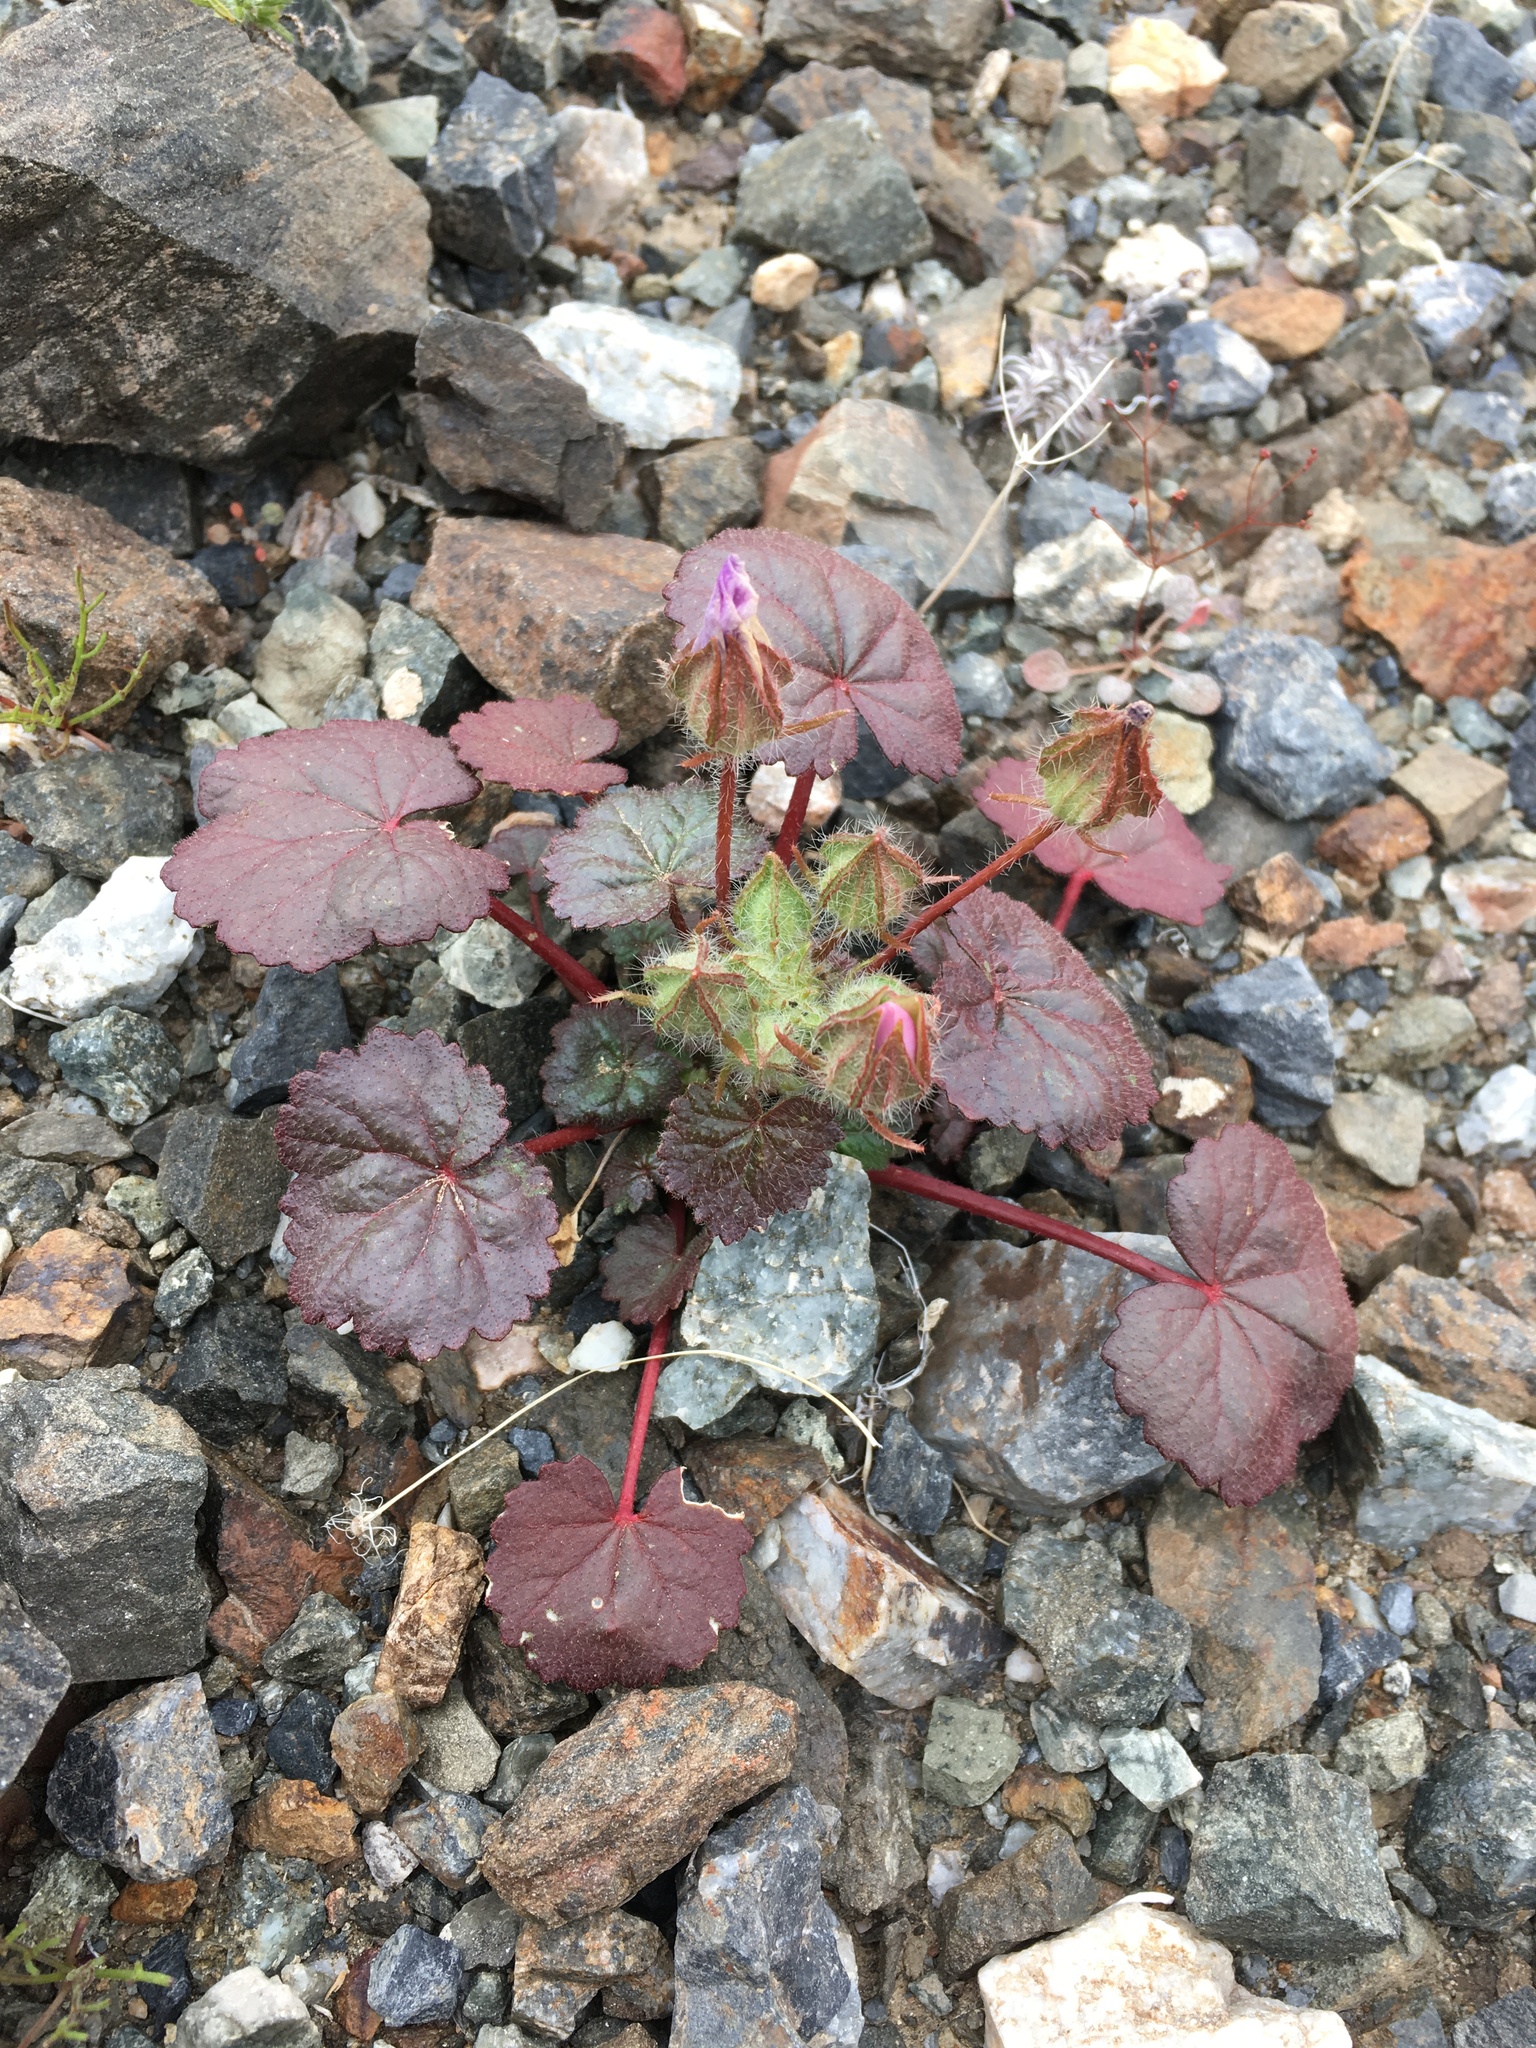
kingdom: Plantae
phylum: Tracheophyta
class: Magnoliopsida
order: Malvales
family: Malvaceae
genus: Eremalche
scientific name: Eremalche rotundifolia
